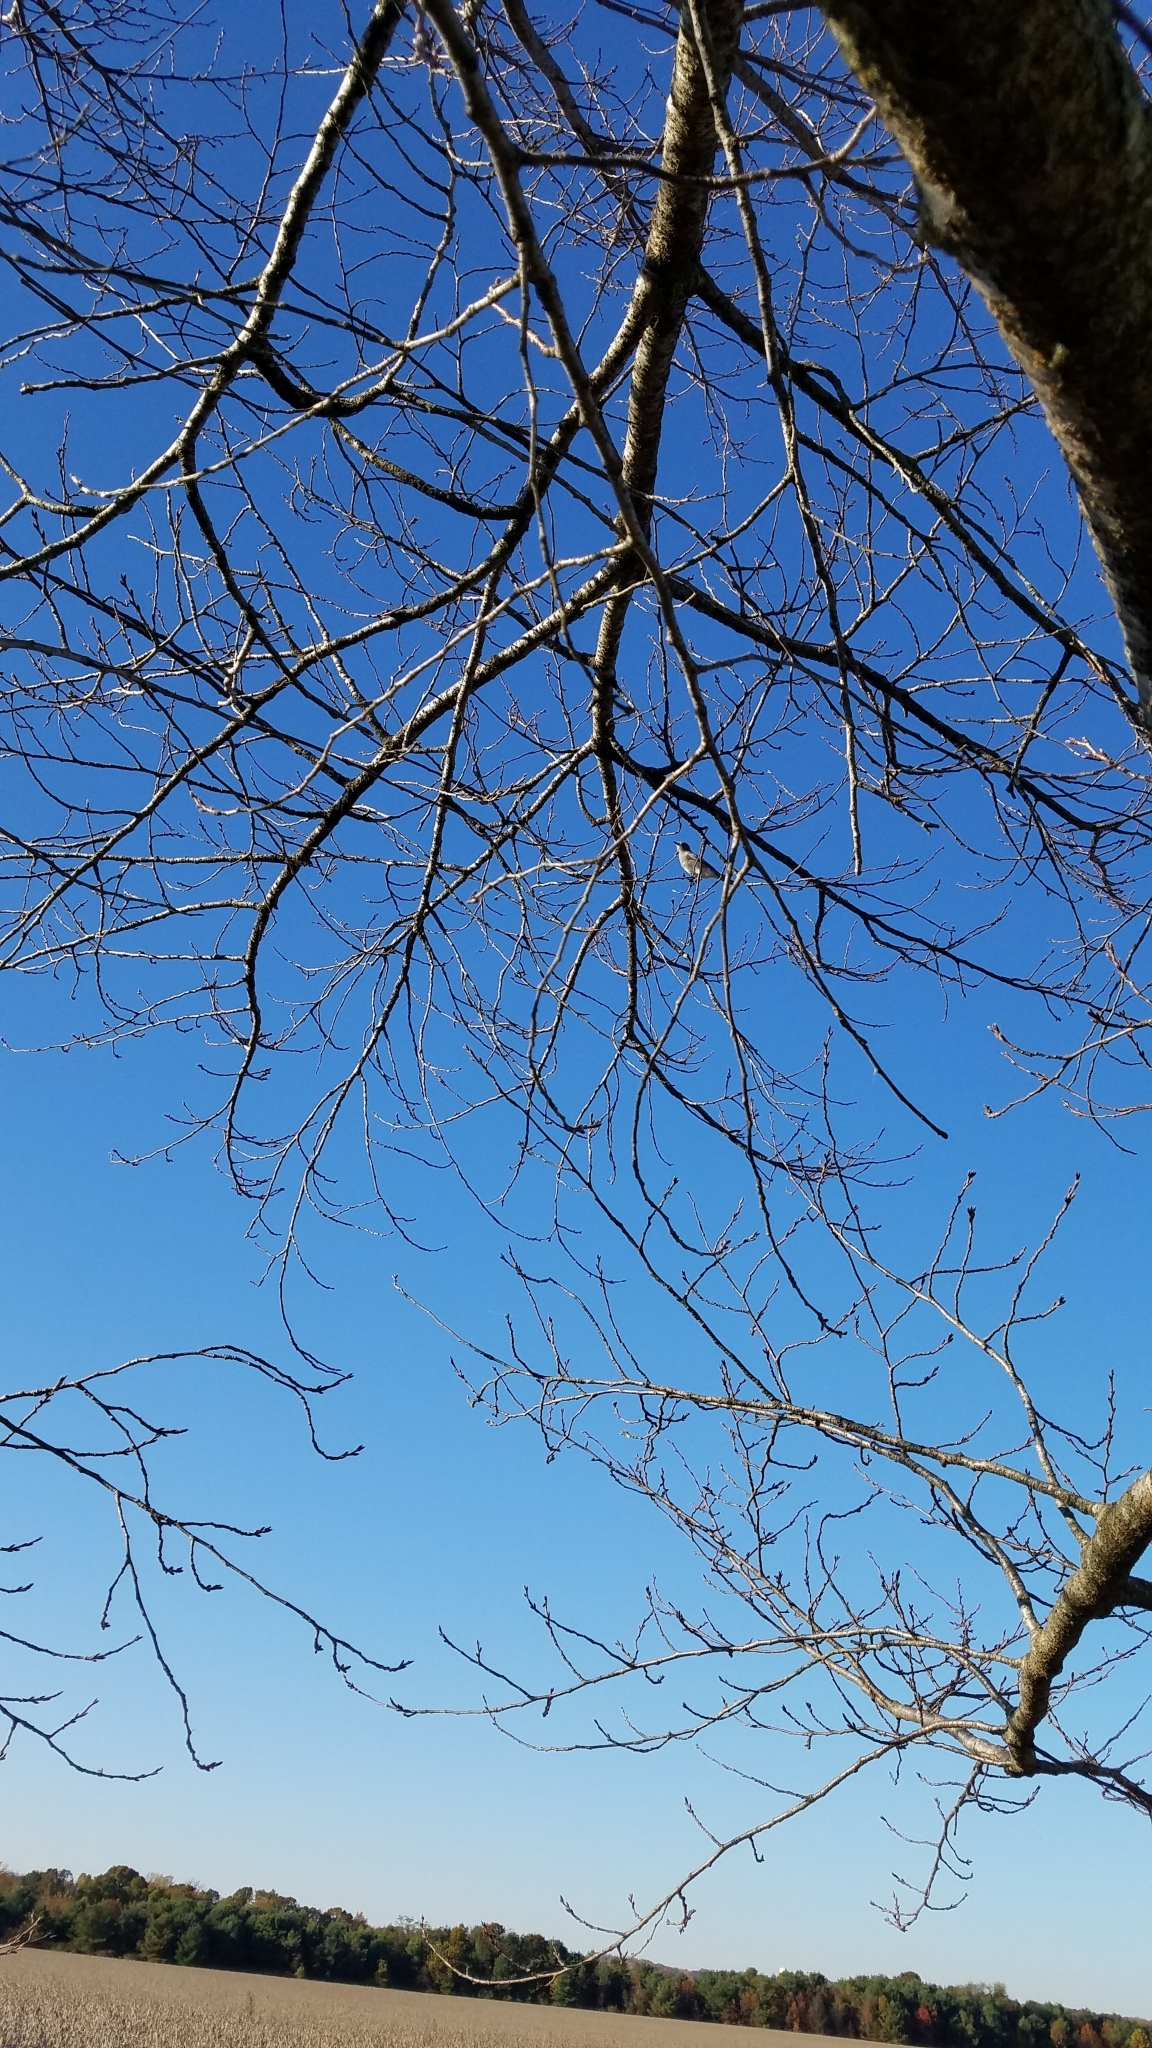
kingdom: Animalia
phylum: Chordata
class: Aves
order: Passeriformes
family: Turdidae
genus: Sialia
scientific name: Sialia currucoides
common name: Mountain bluebird
